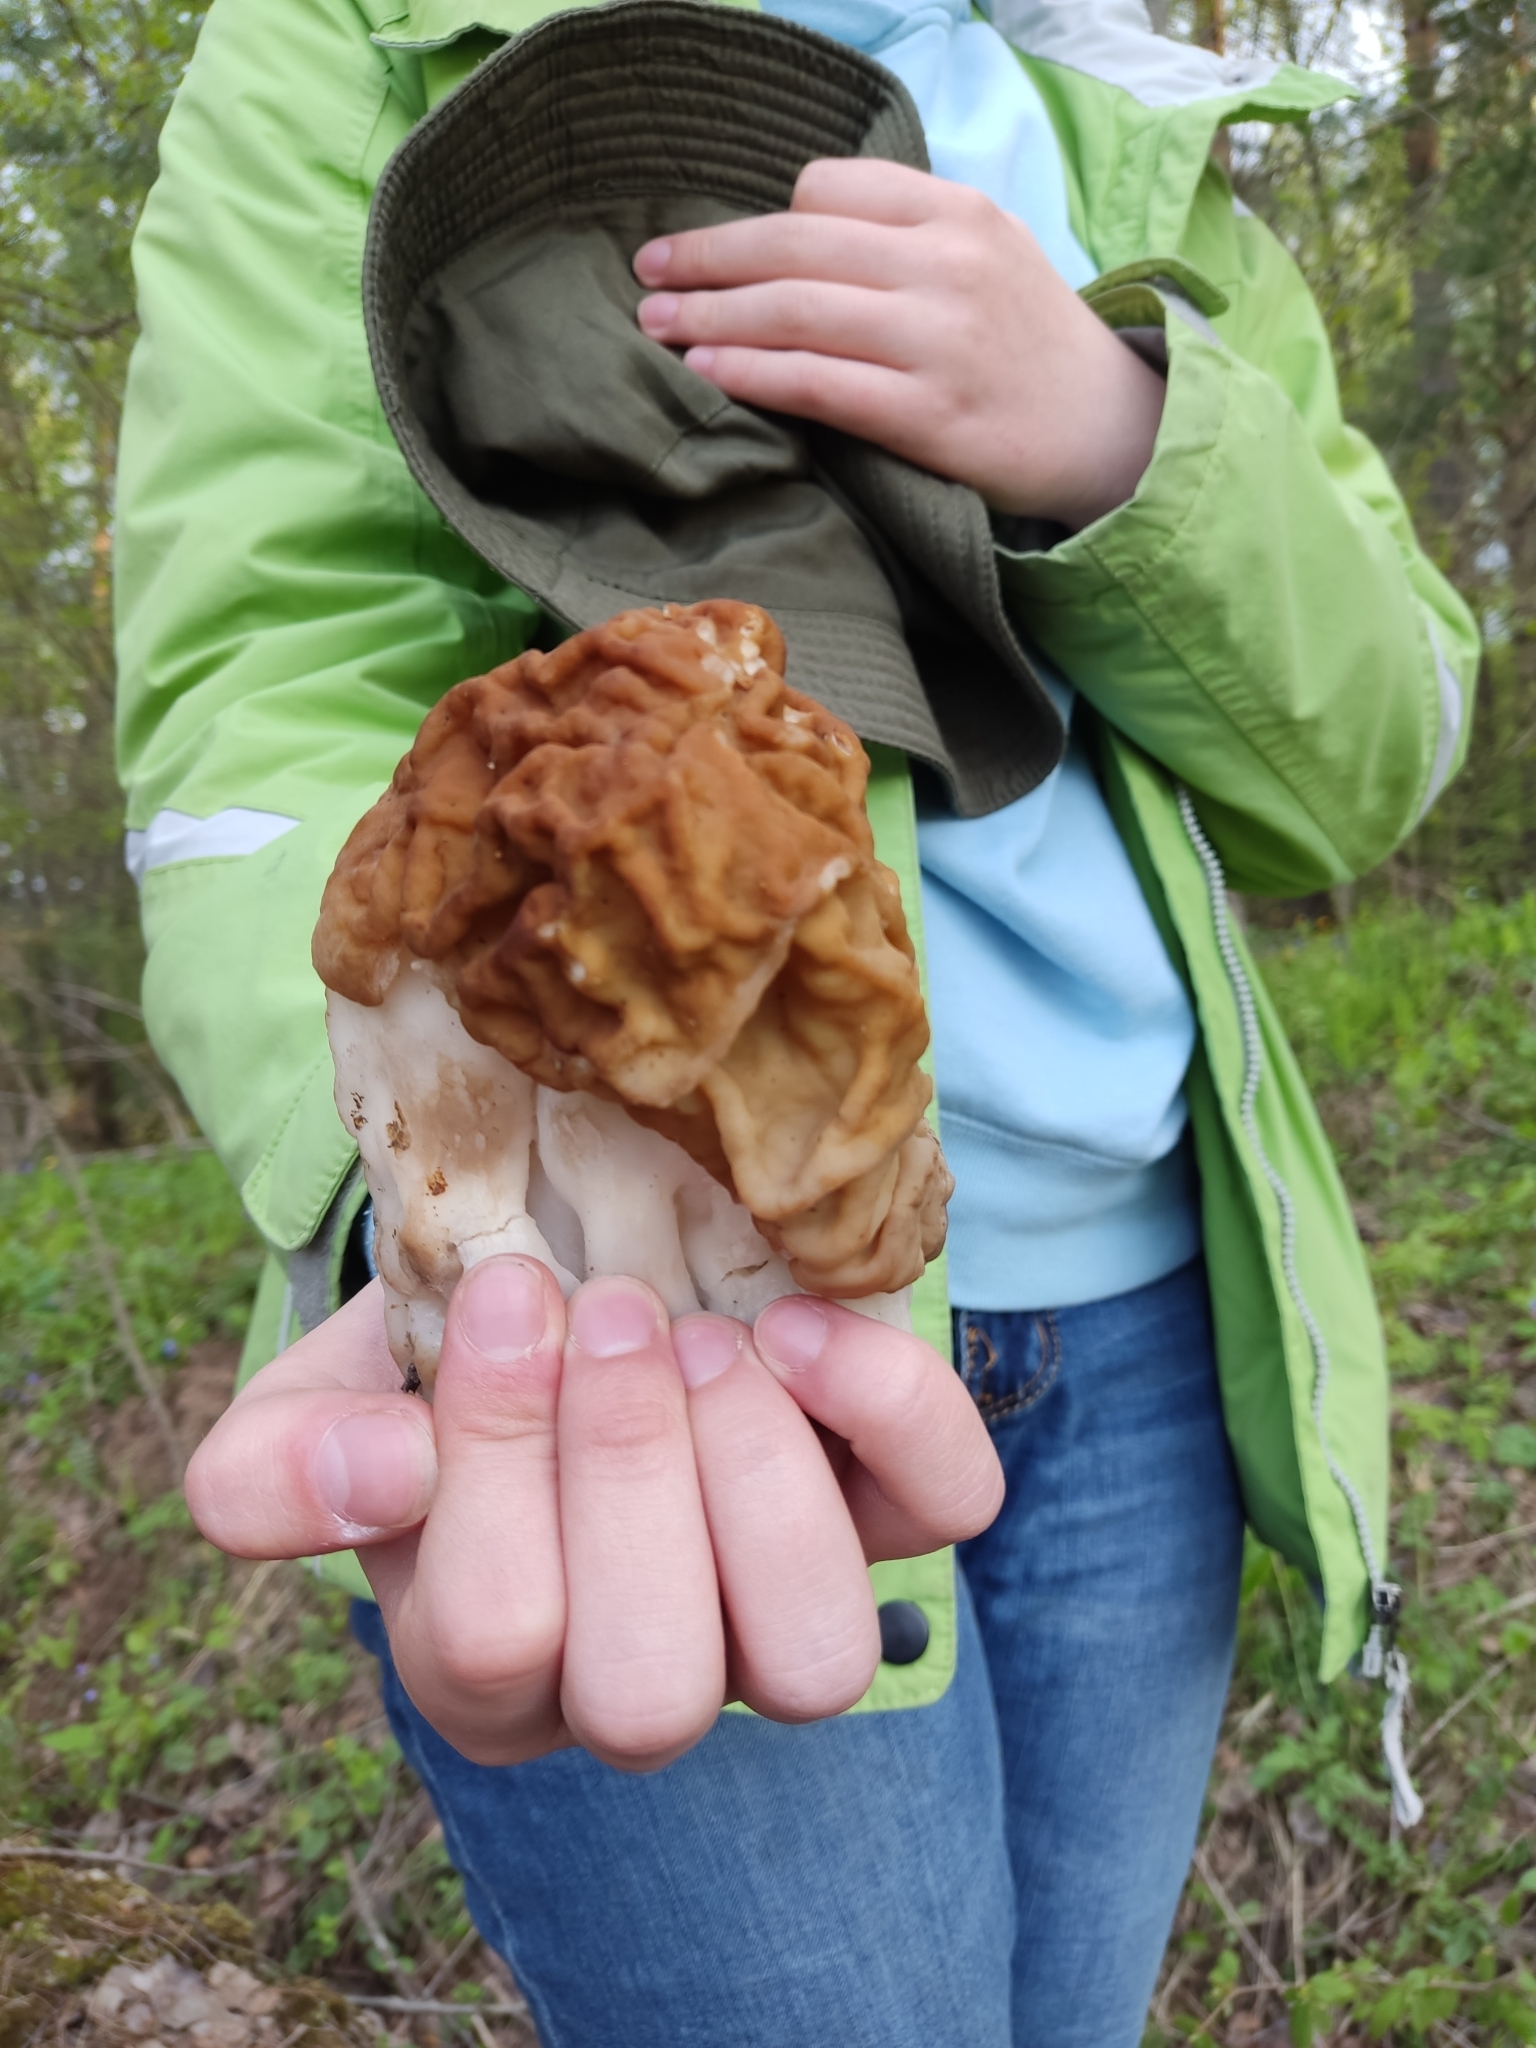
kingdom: Fungi
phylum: Ascomycota
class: Pezizomycetes
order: Pezizales
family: Discinaceae
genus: Gyromitra
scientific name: Gyromitra gigas
